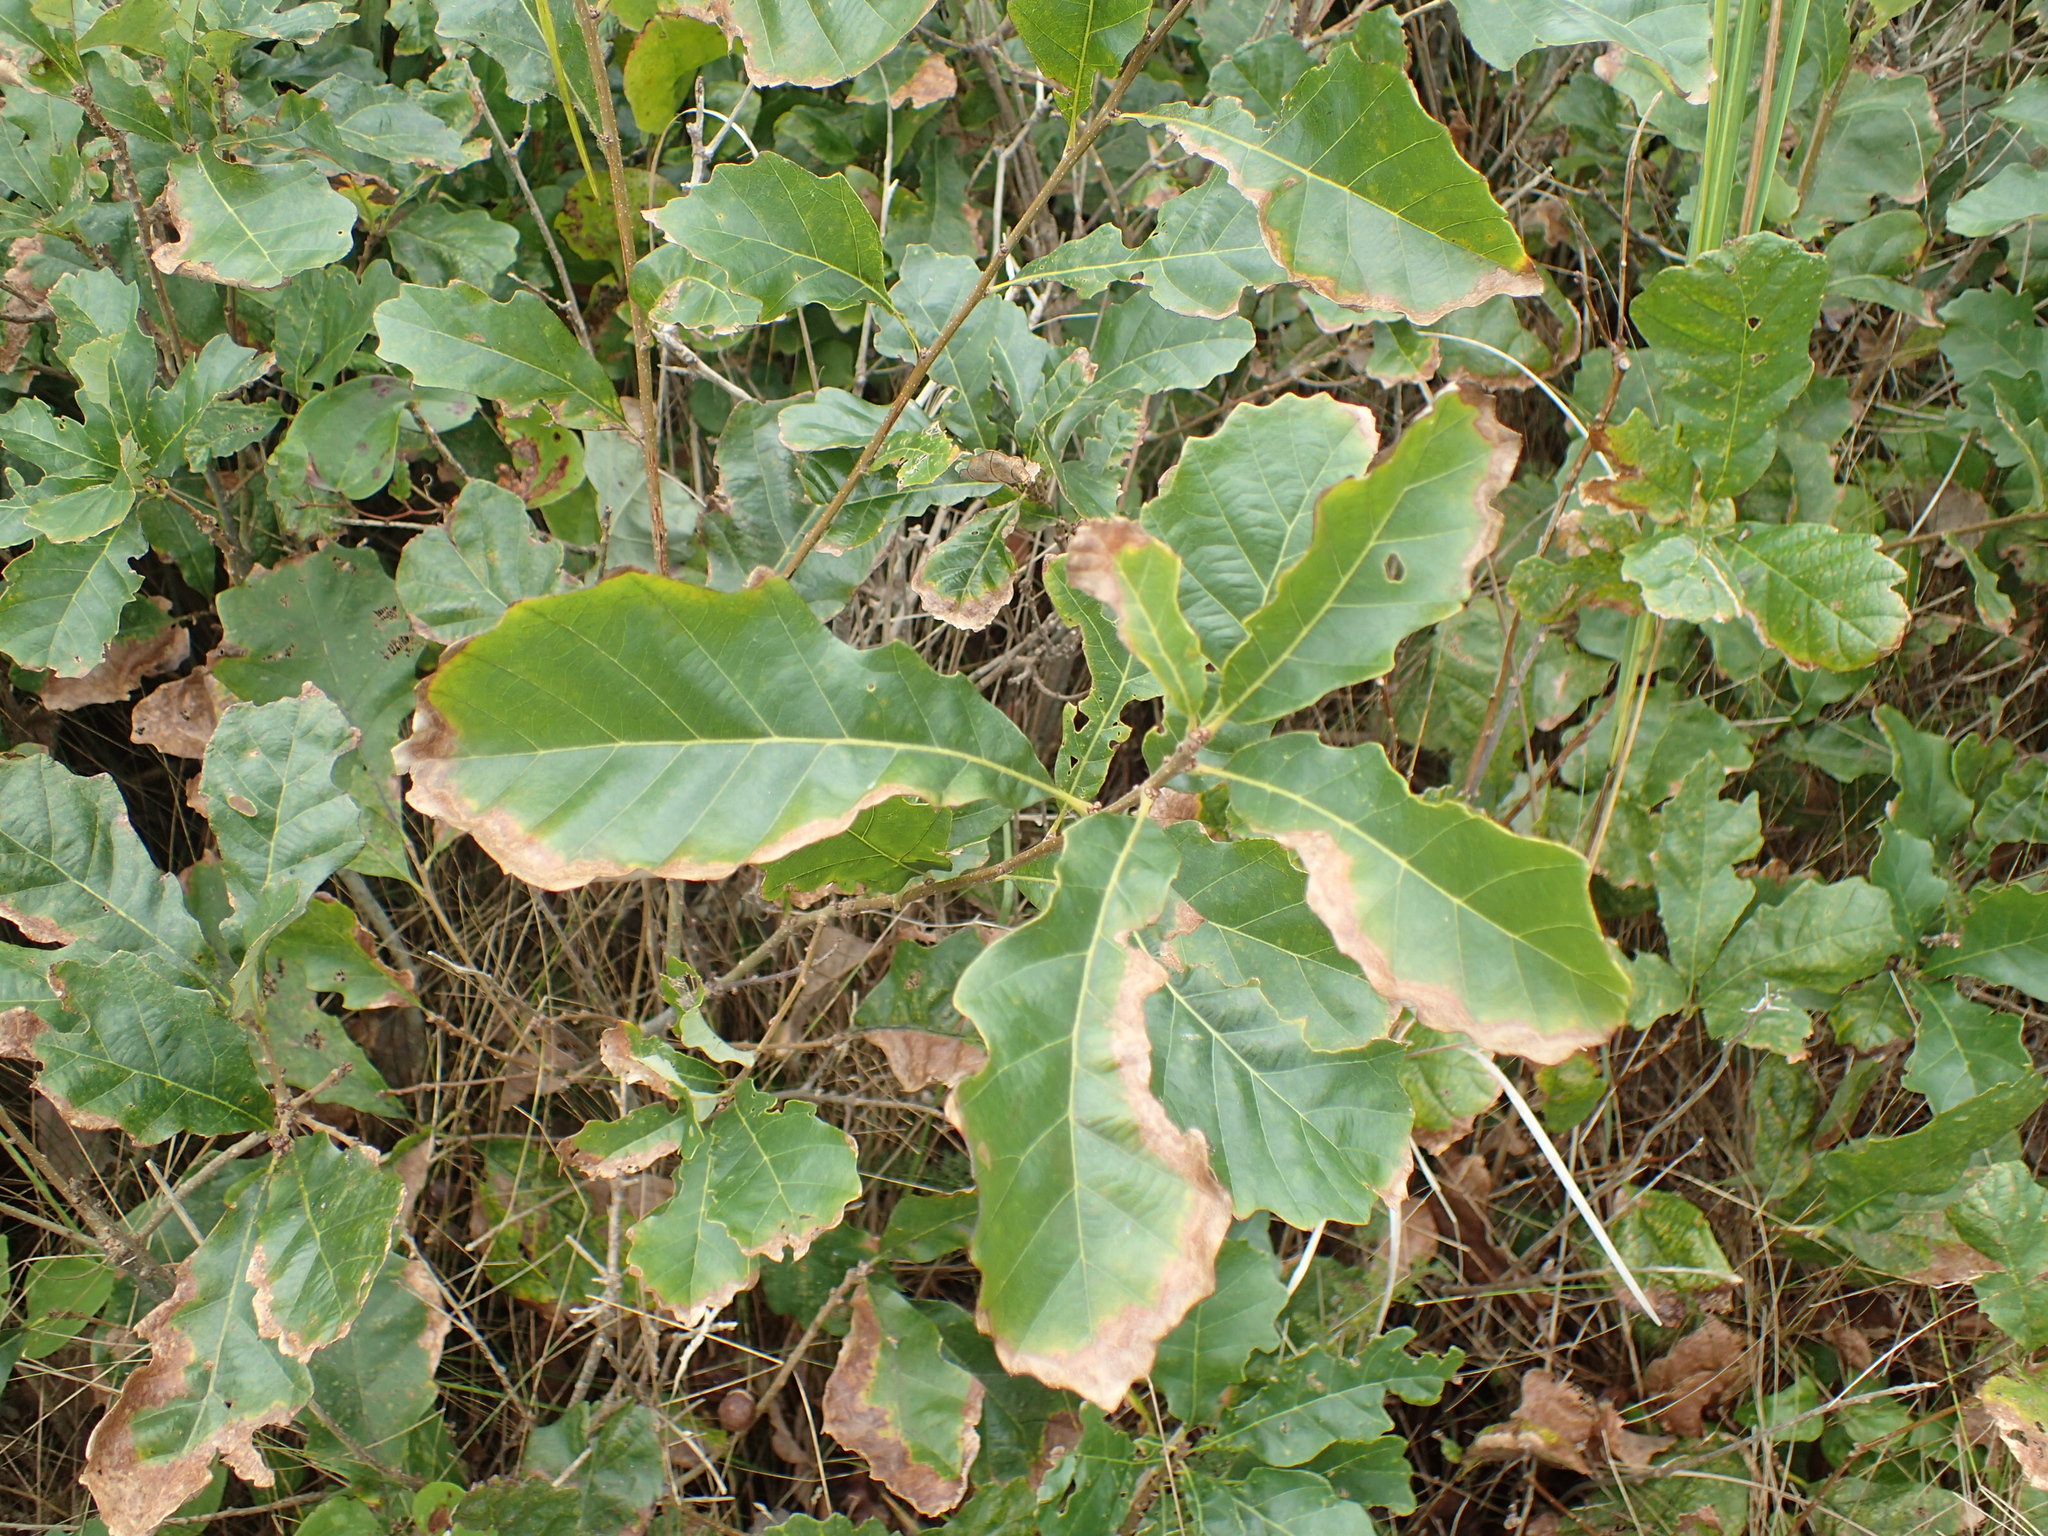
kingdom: Plantae
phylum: Tracheophyta
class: Magnoliopsida
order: Fagales
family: Fagaceae
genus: Quercus
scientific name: Quercus prinoides
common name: Dwarf chinkapin oak
